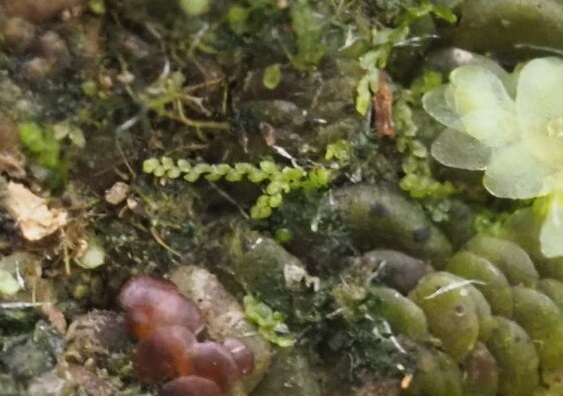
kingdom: Plantae
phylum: Marchantiophyta
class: Jungermanniopsida
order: Porellales
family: Lejeuneaceae
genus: Metalejeunea
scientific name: Metalejeunea cucullata
